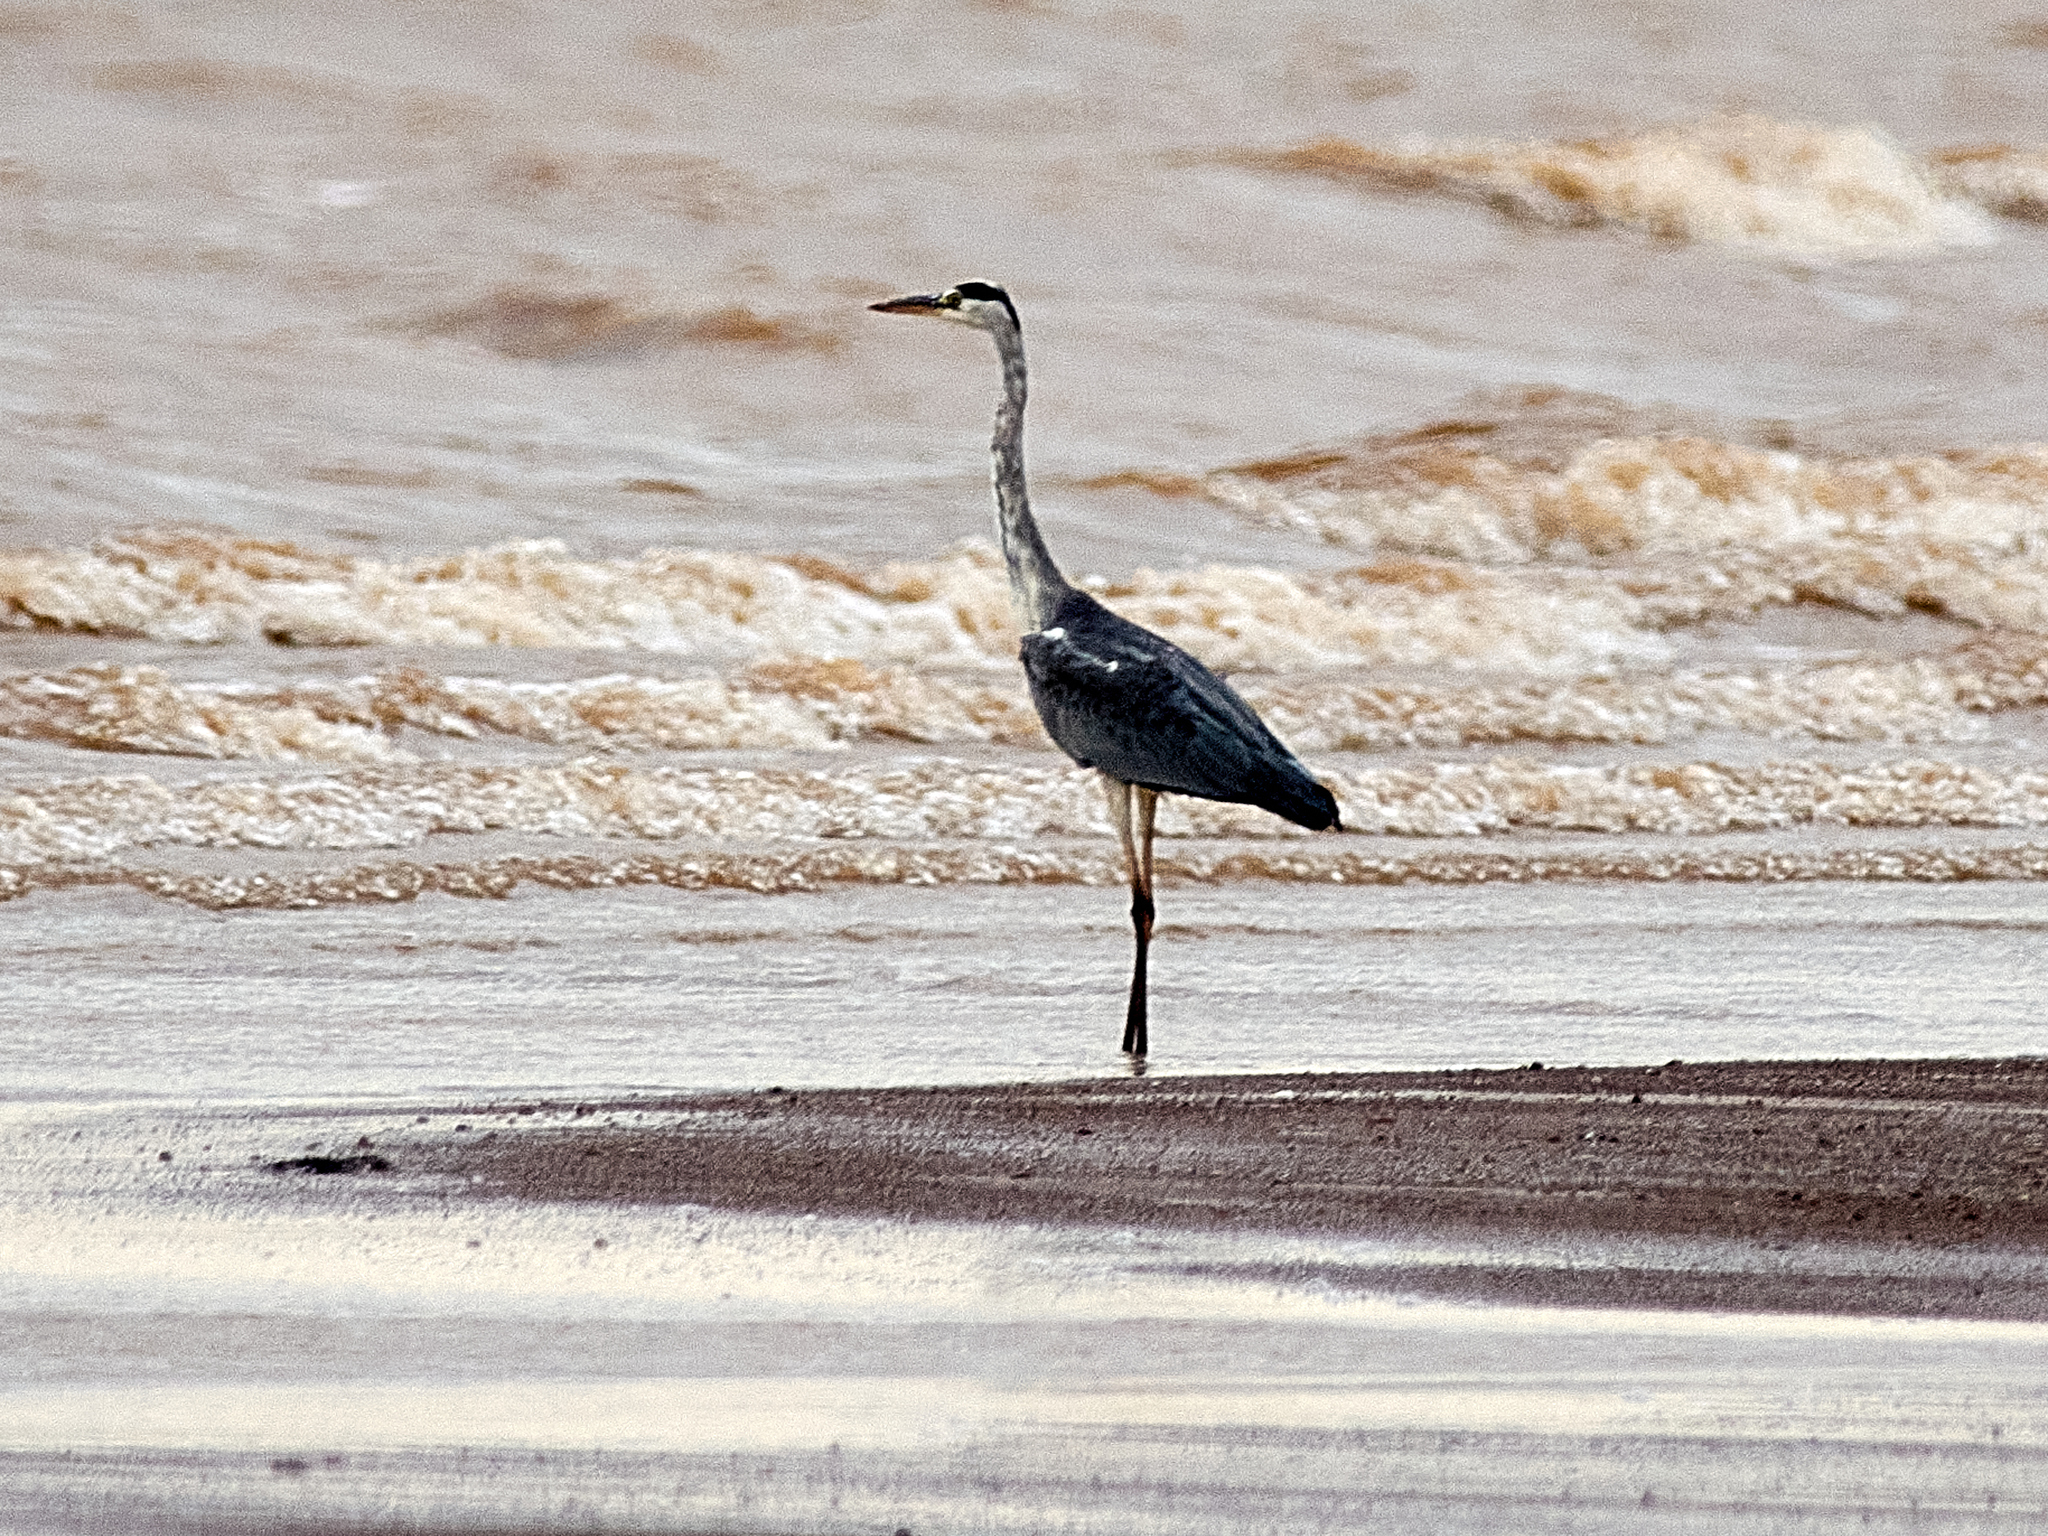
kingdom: Animalia
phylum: Chordata
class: Aves
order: Pelecaniformes
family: Ardeidae
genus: Ardea
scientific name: Ardea cinerea
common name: Grey heron
